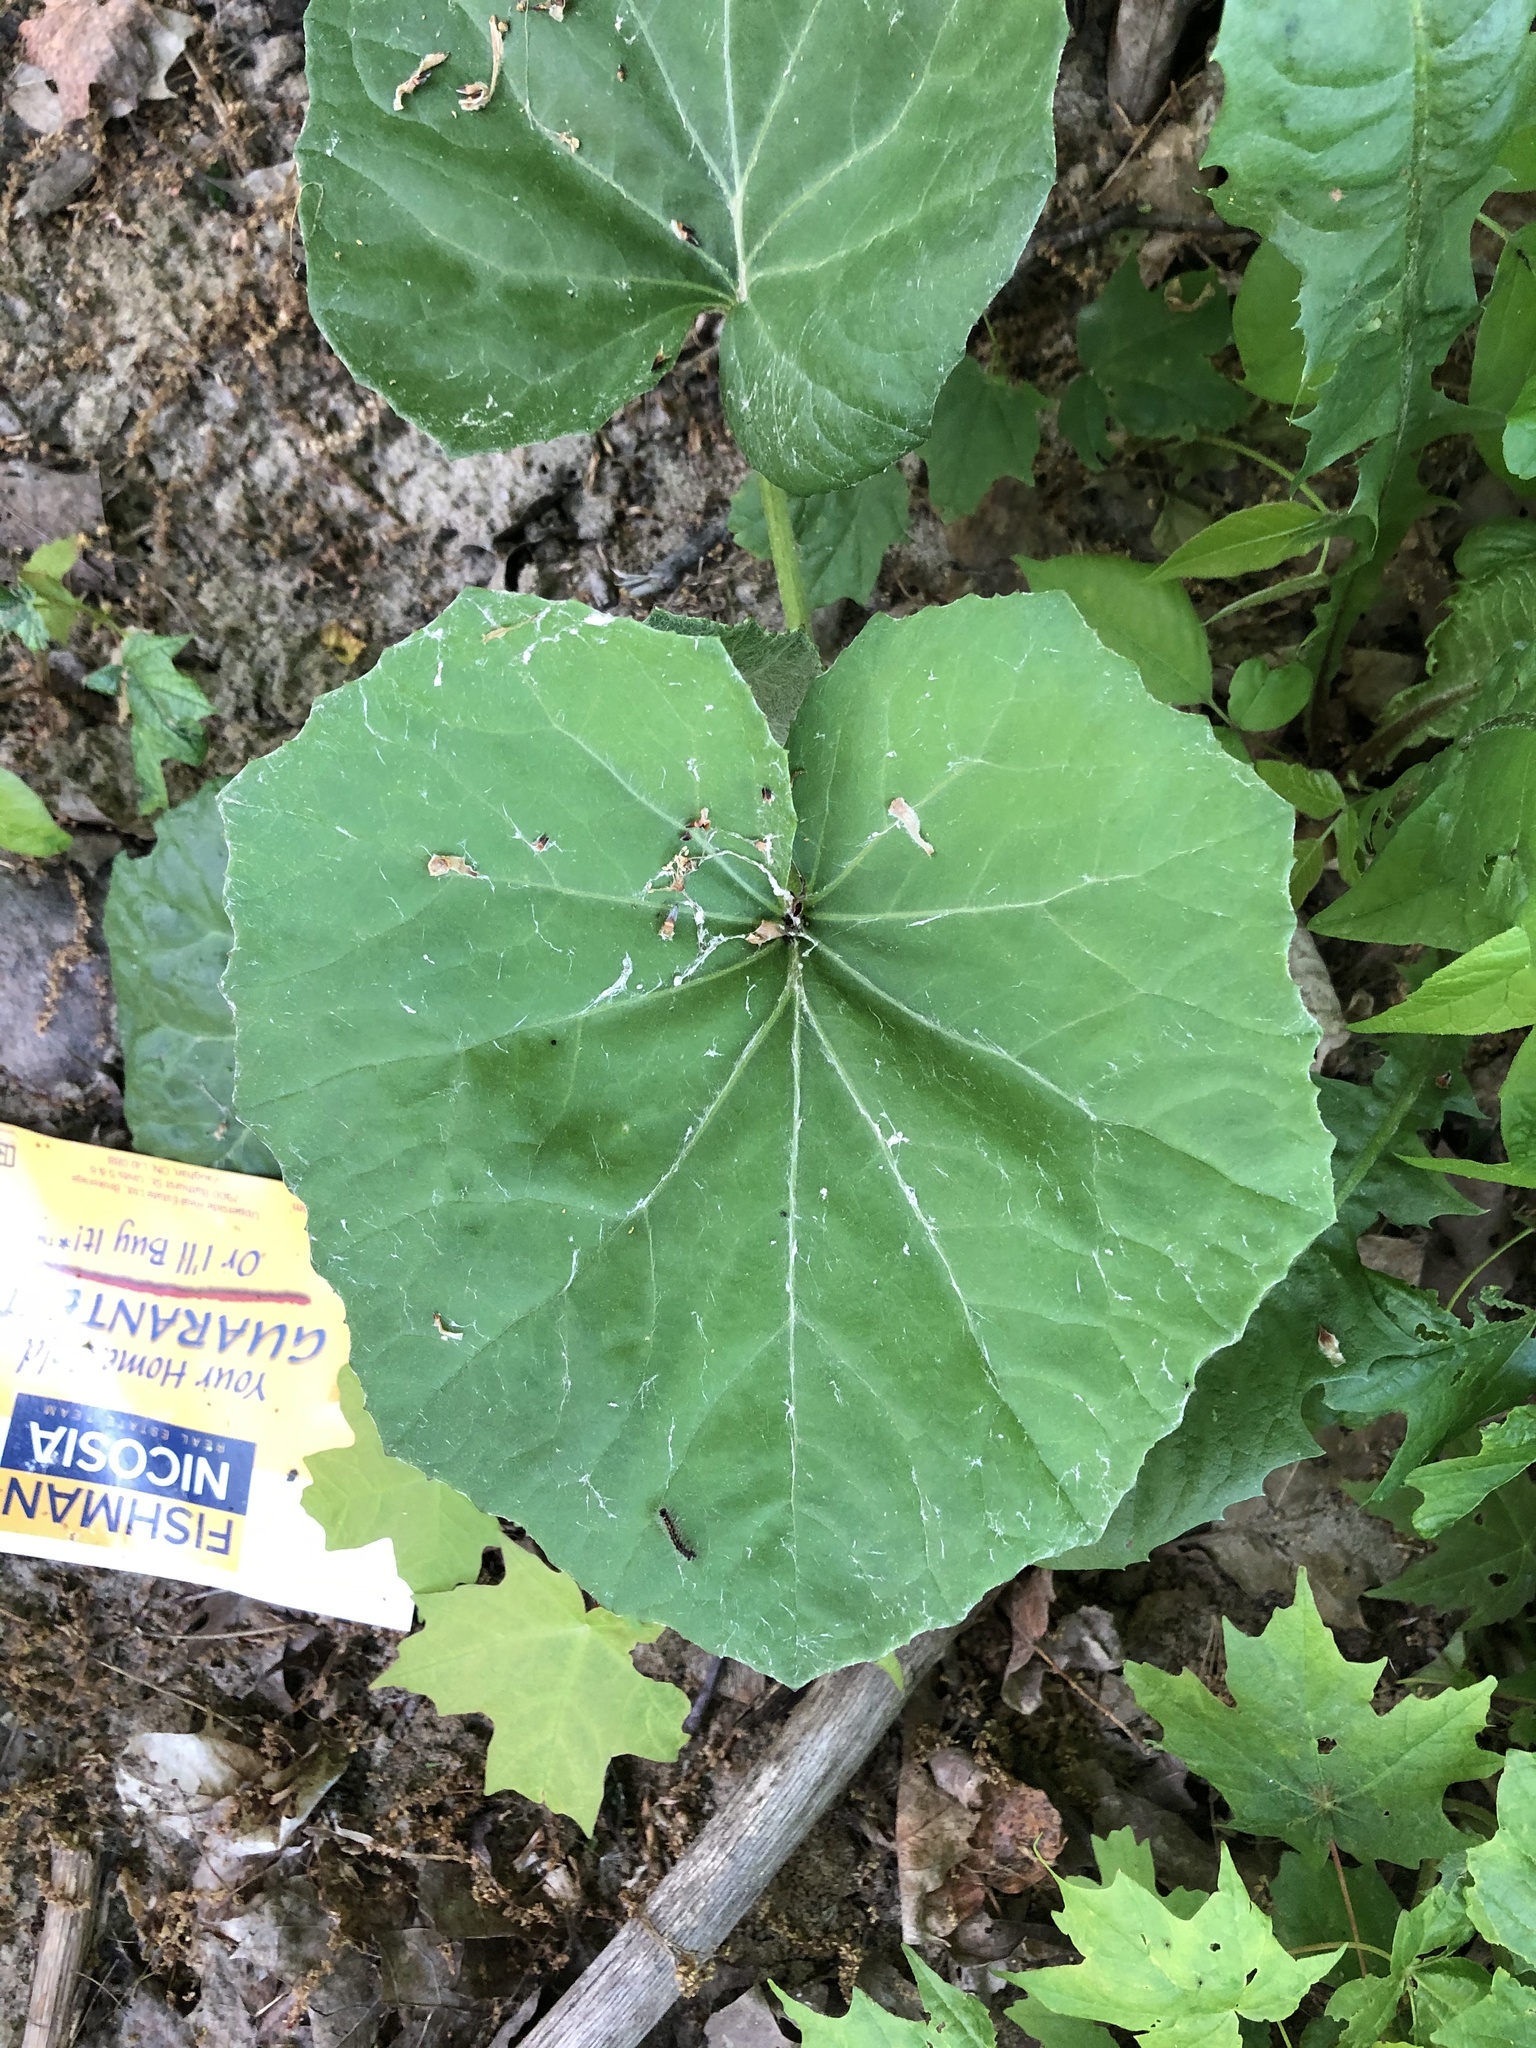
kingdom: Plantae
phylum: Tracheophyta
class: Magnoliopsida
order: Asterales
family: Asteraceae
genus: Tussilago
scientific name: Tussilago farfara
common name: Coltsfoot
